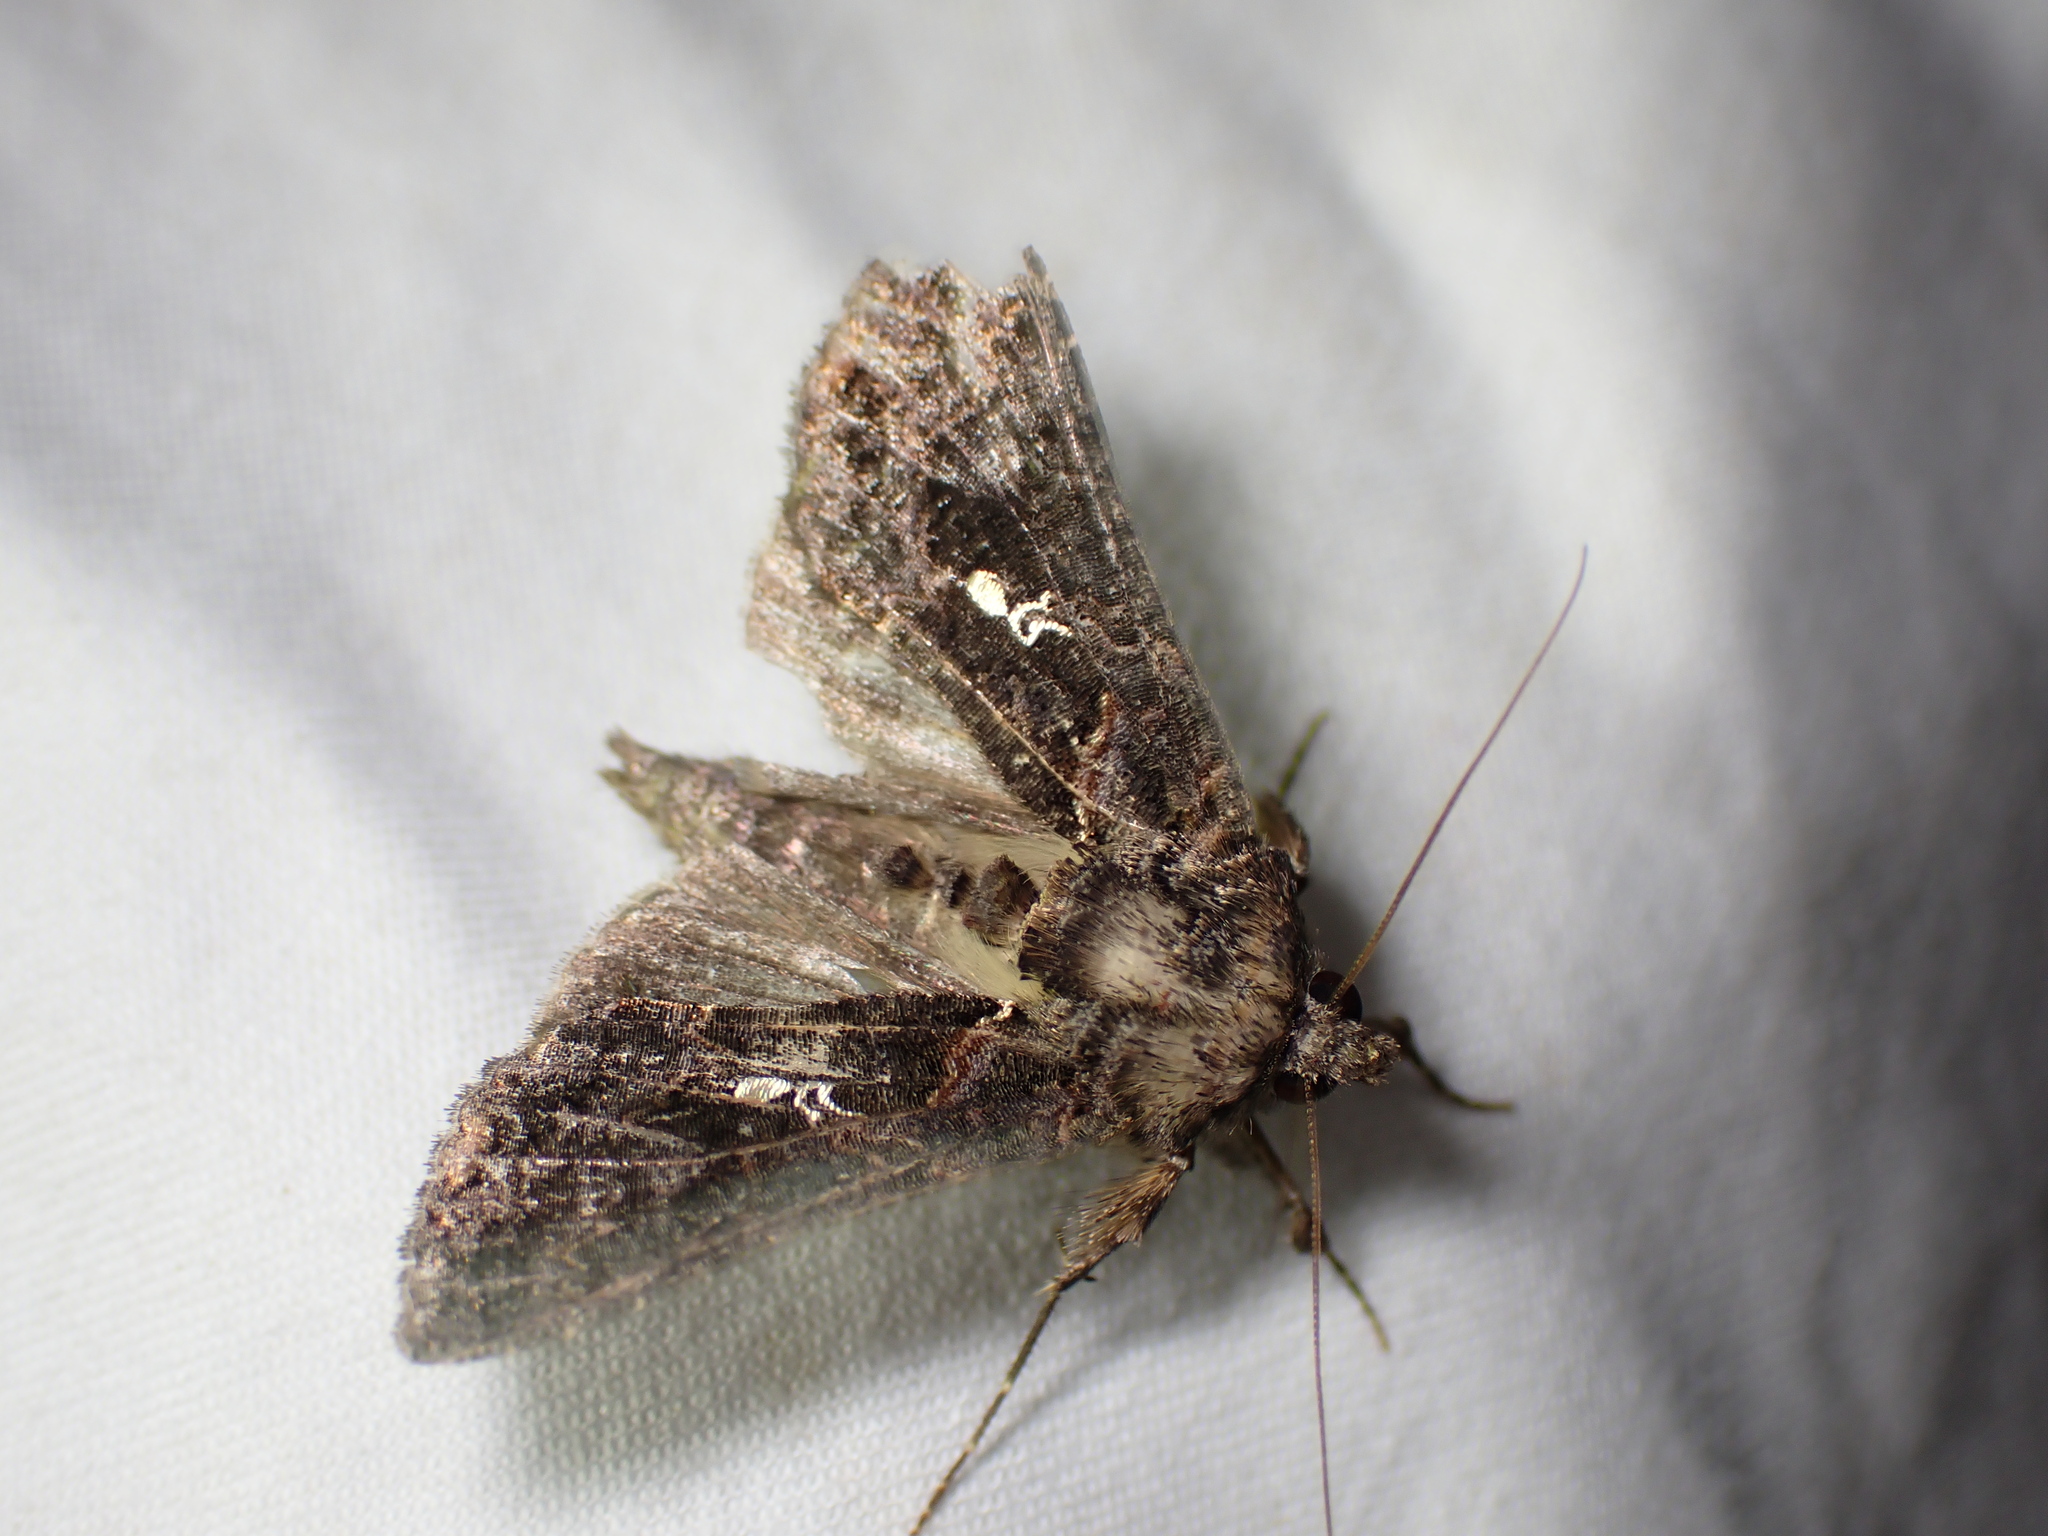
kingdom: Animalia
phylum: Arthropoda
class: Insecta
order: Lepidoptera
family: Noctuidae
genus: Ctenoplusia
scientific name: Ctenoplusia limbirena
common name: Scar bank gem
